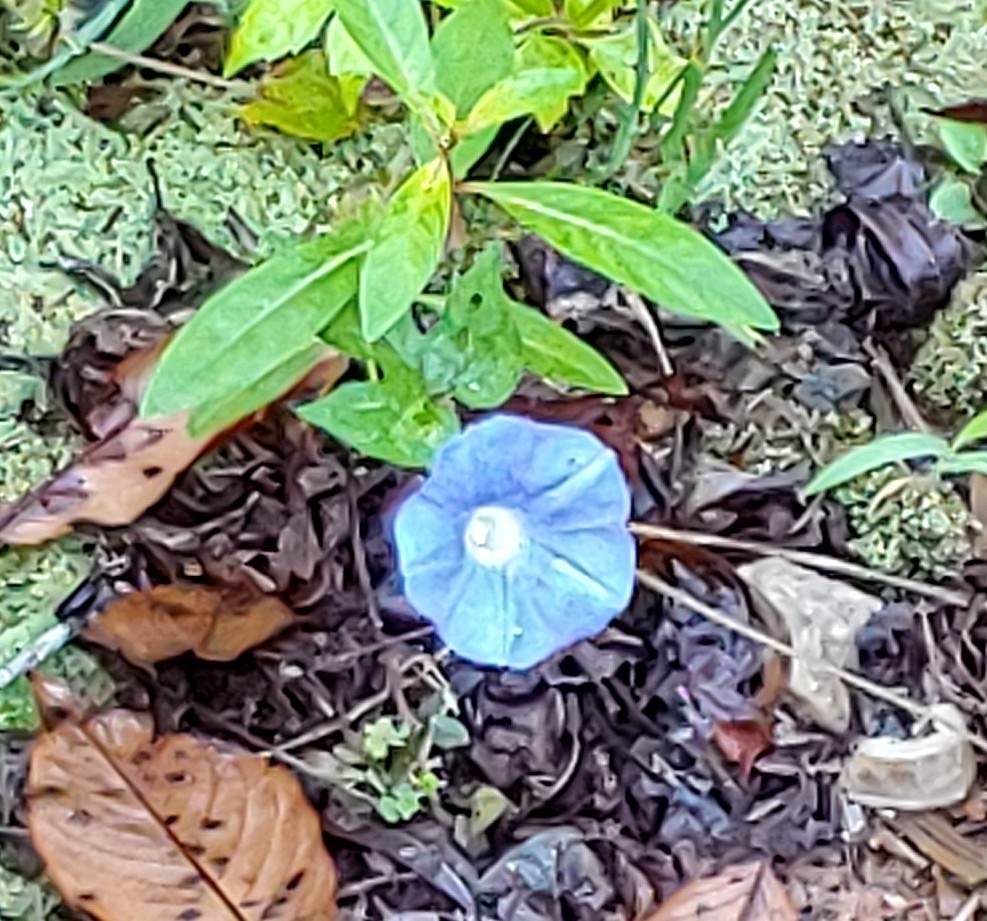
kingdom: Plantae
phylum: Tracheophyta
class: Magnoliopsida
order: Solanales
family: Convolvulaceae
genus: Ipomoea
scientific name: Ipomoea hederacea
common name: Ivy-leaved morning-glory
